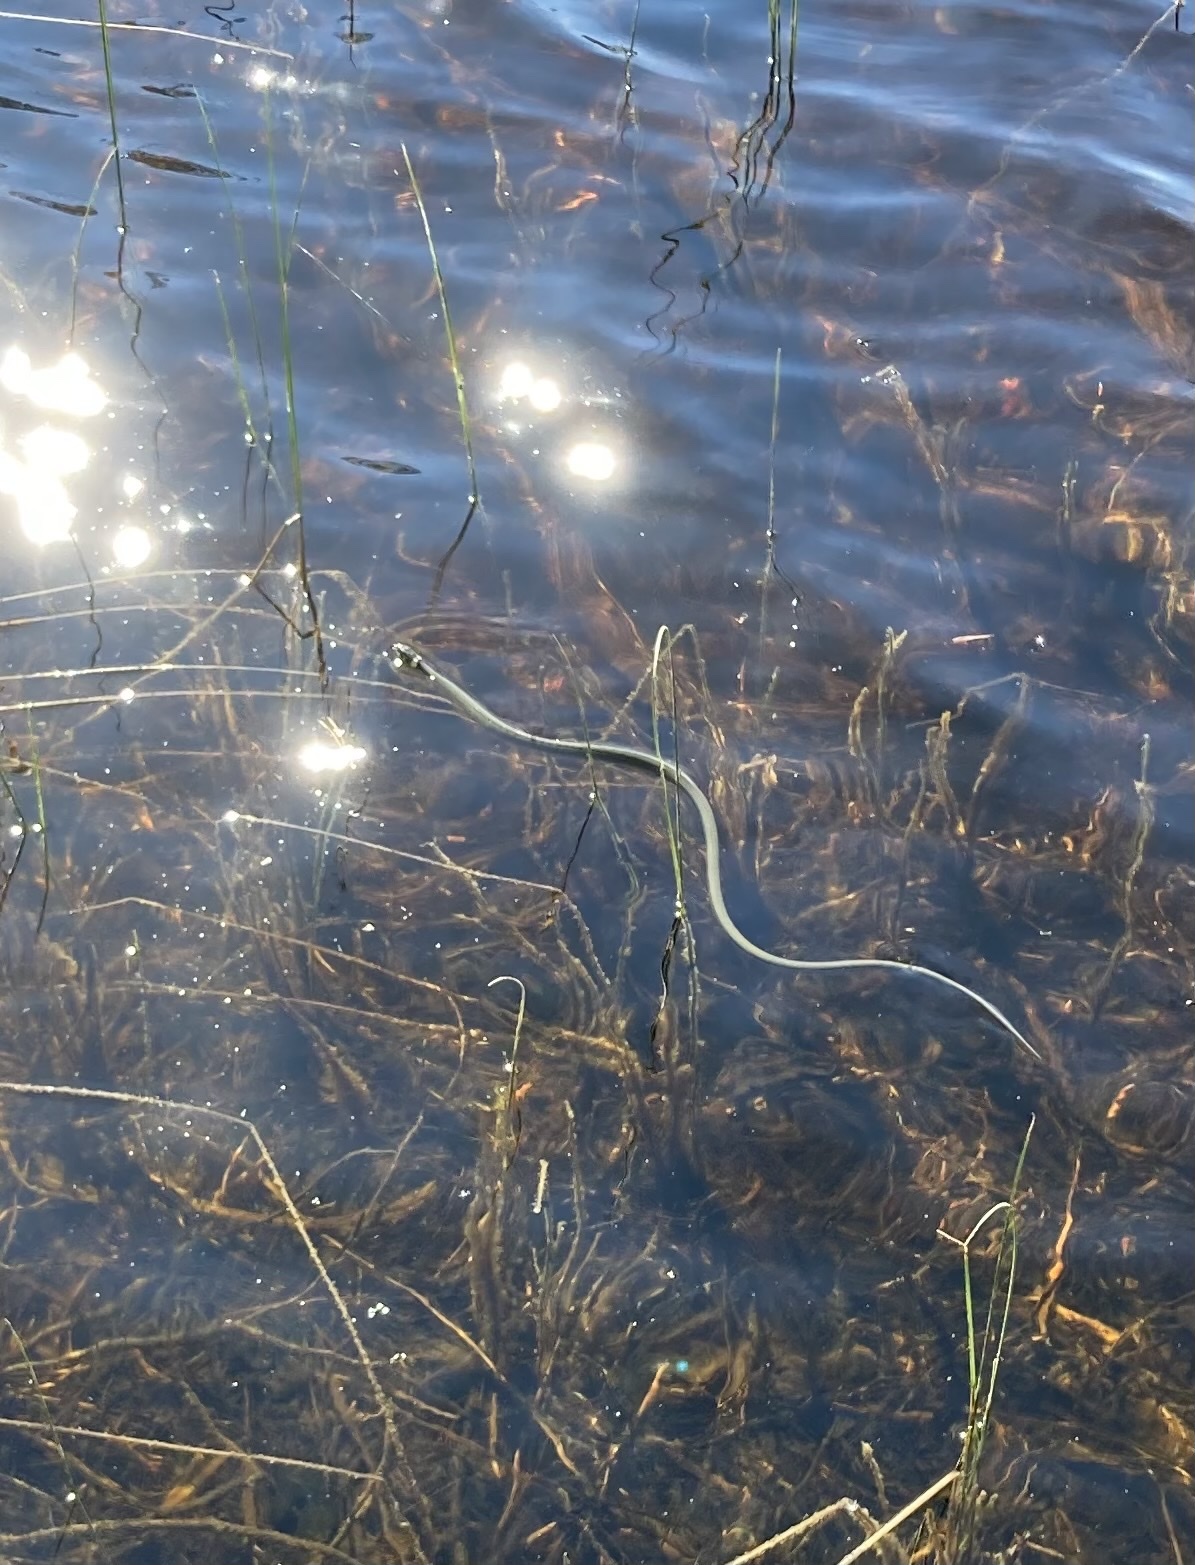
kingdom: Animalia
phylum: Chordata
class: Squamata
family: Colubridae
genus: Natrix
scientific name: Natrix natrix
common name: Grass snake
